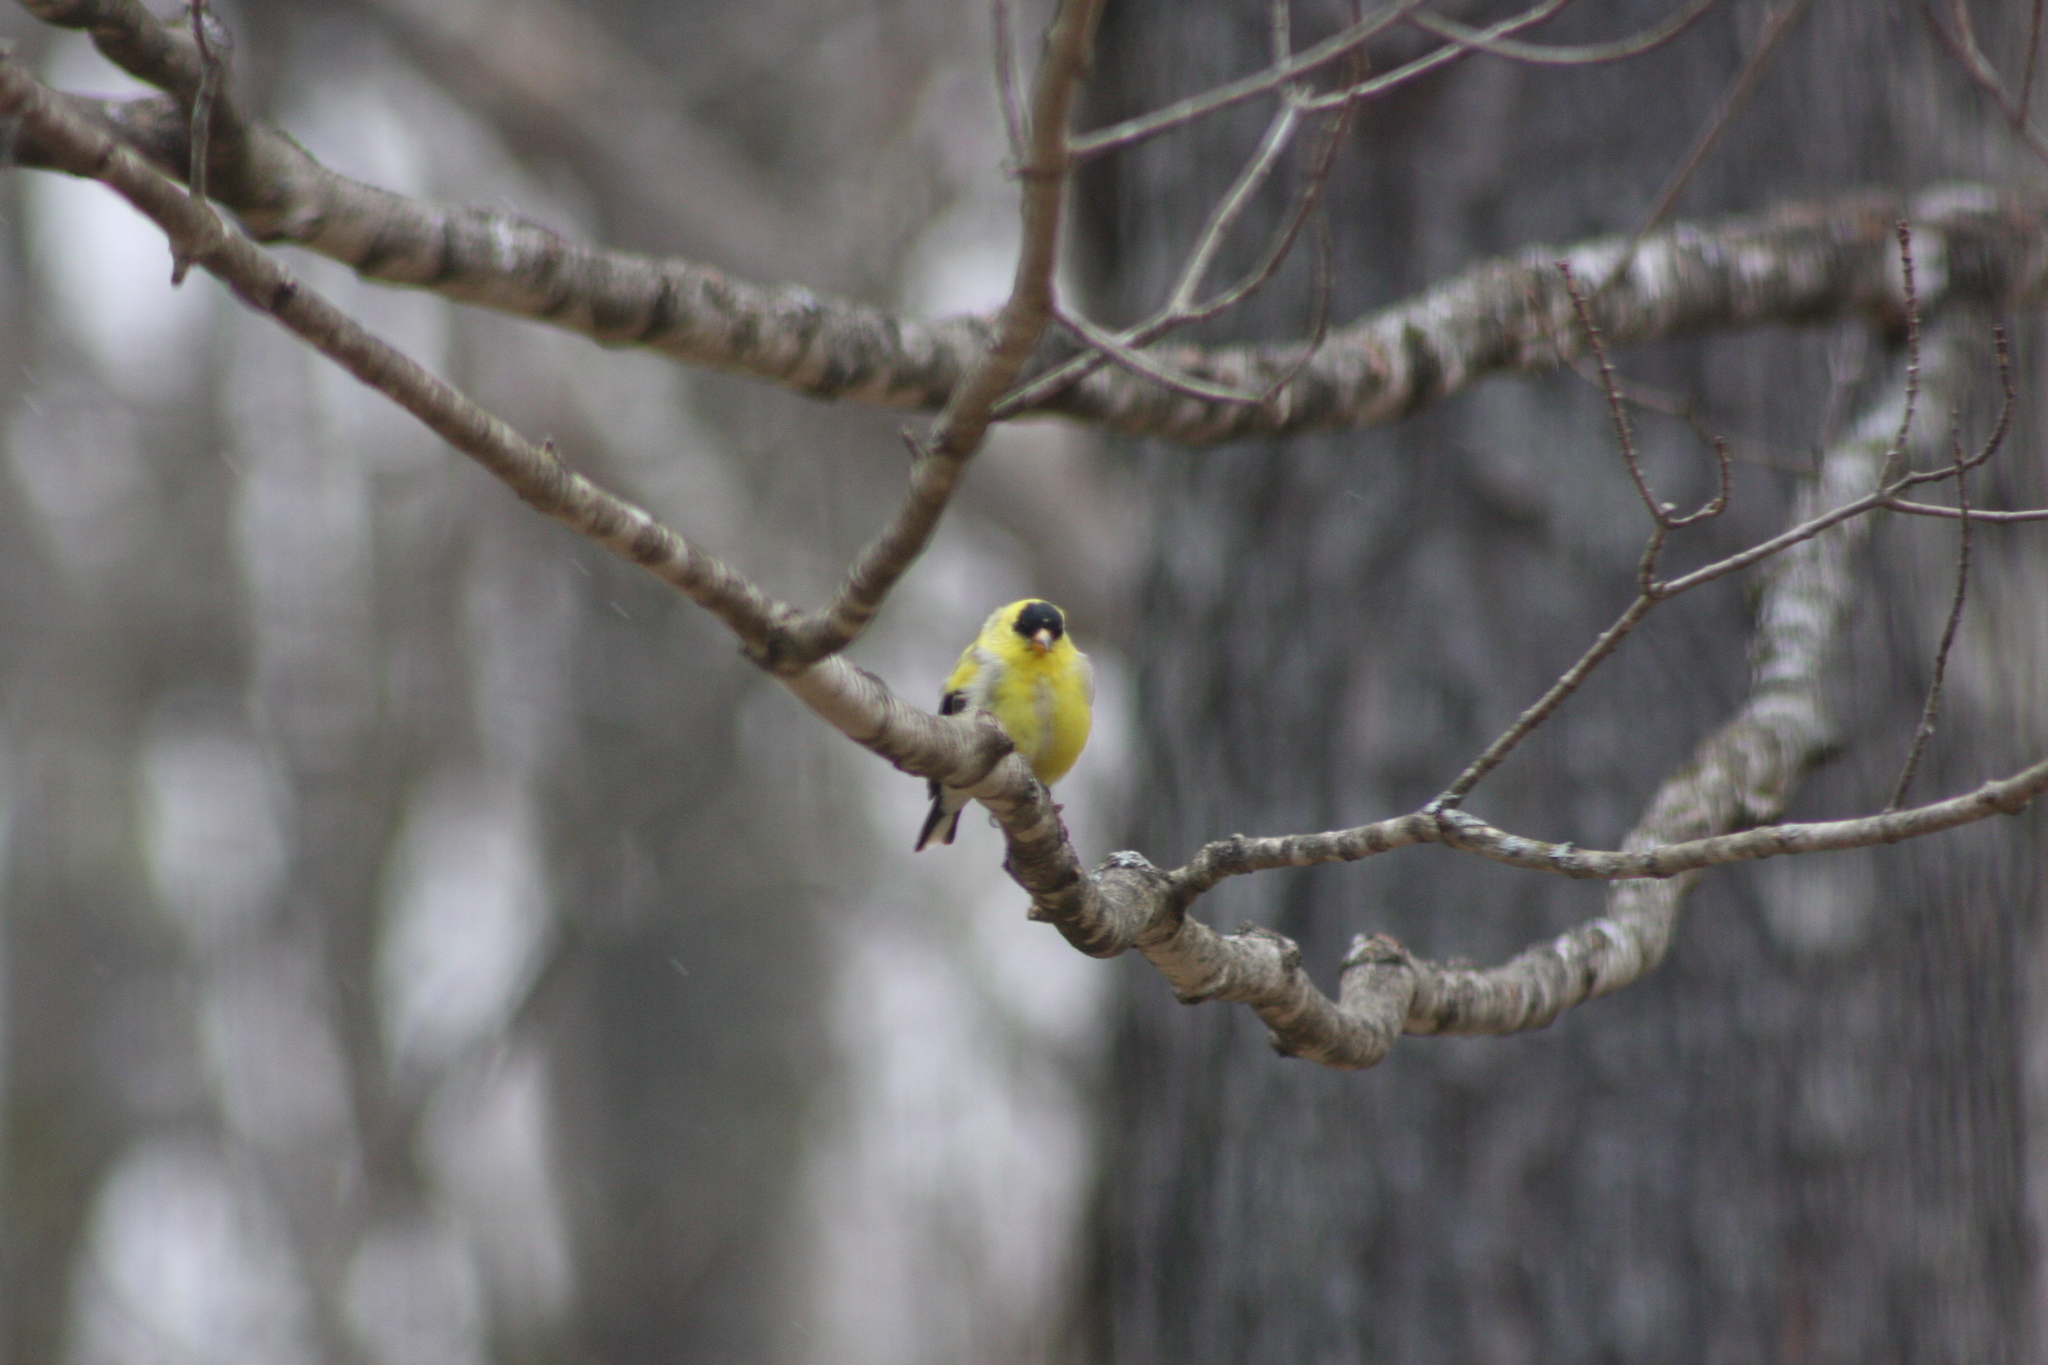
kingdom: Animalia
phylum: Chordata
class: Aves
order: Passeriformes
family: Fringillidae
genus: Spinus
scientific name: Spinus tristis
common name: American goldfinch
